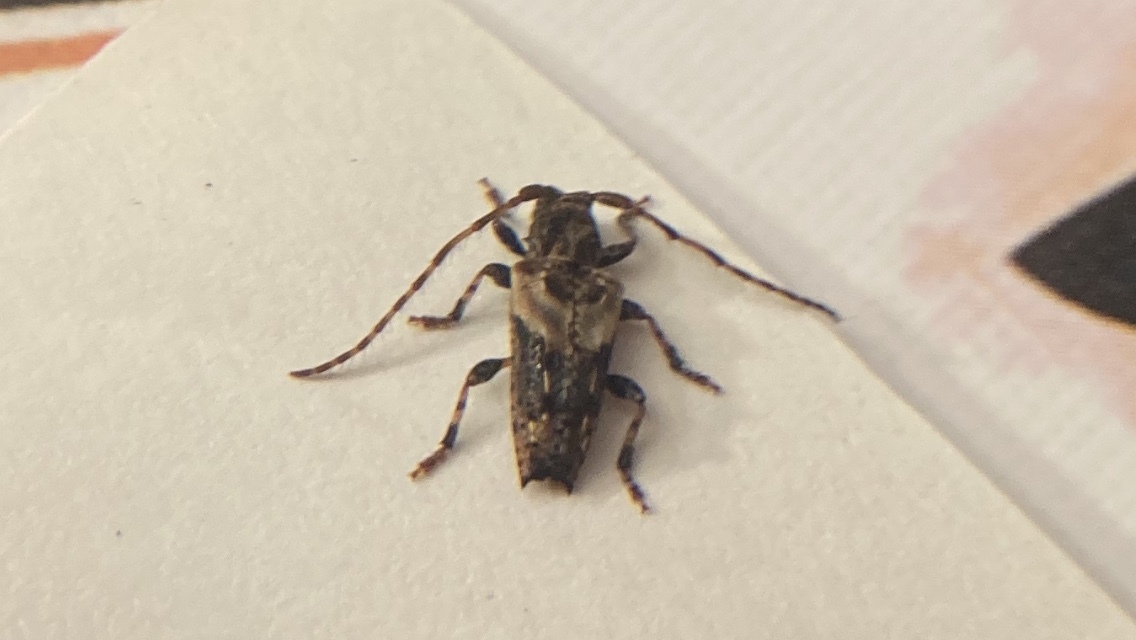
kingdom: Animalia
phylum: Arthropoda
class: Insecta
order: Coleoptera
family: Cerambycidae
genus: Pogonocherus
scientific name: Pogonocherus hispidus
